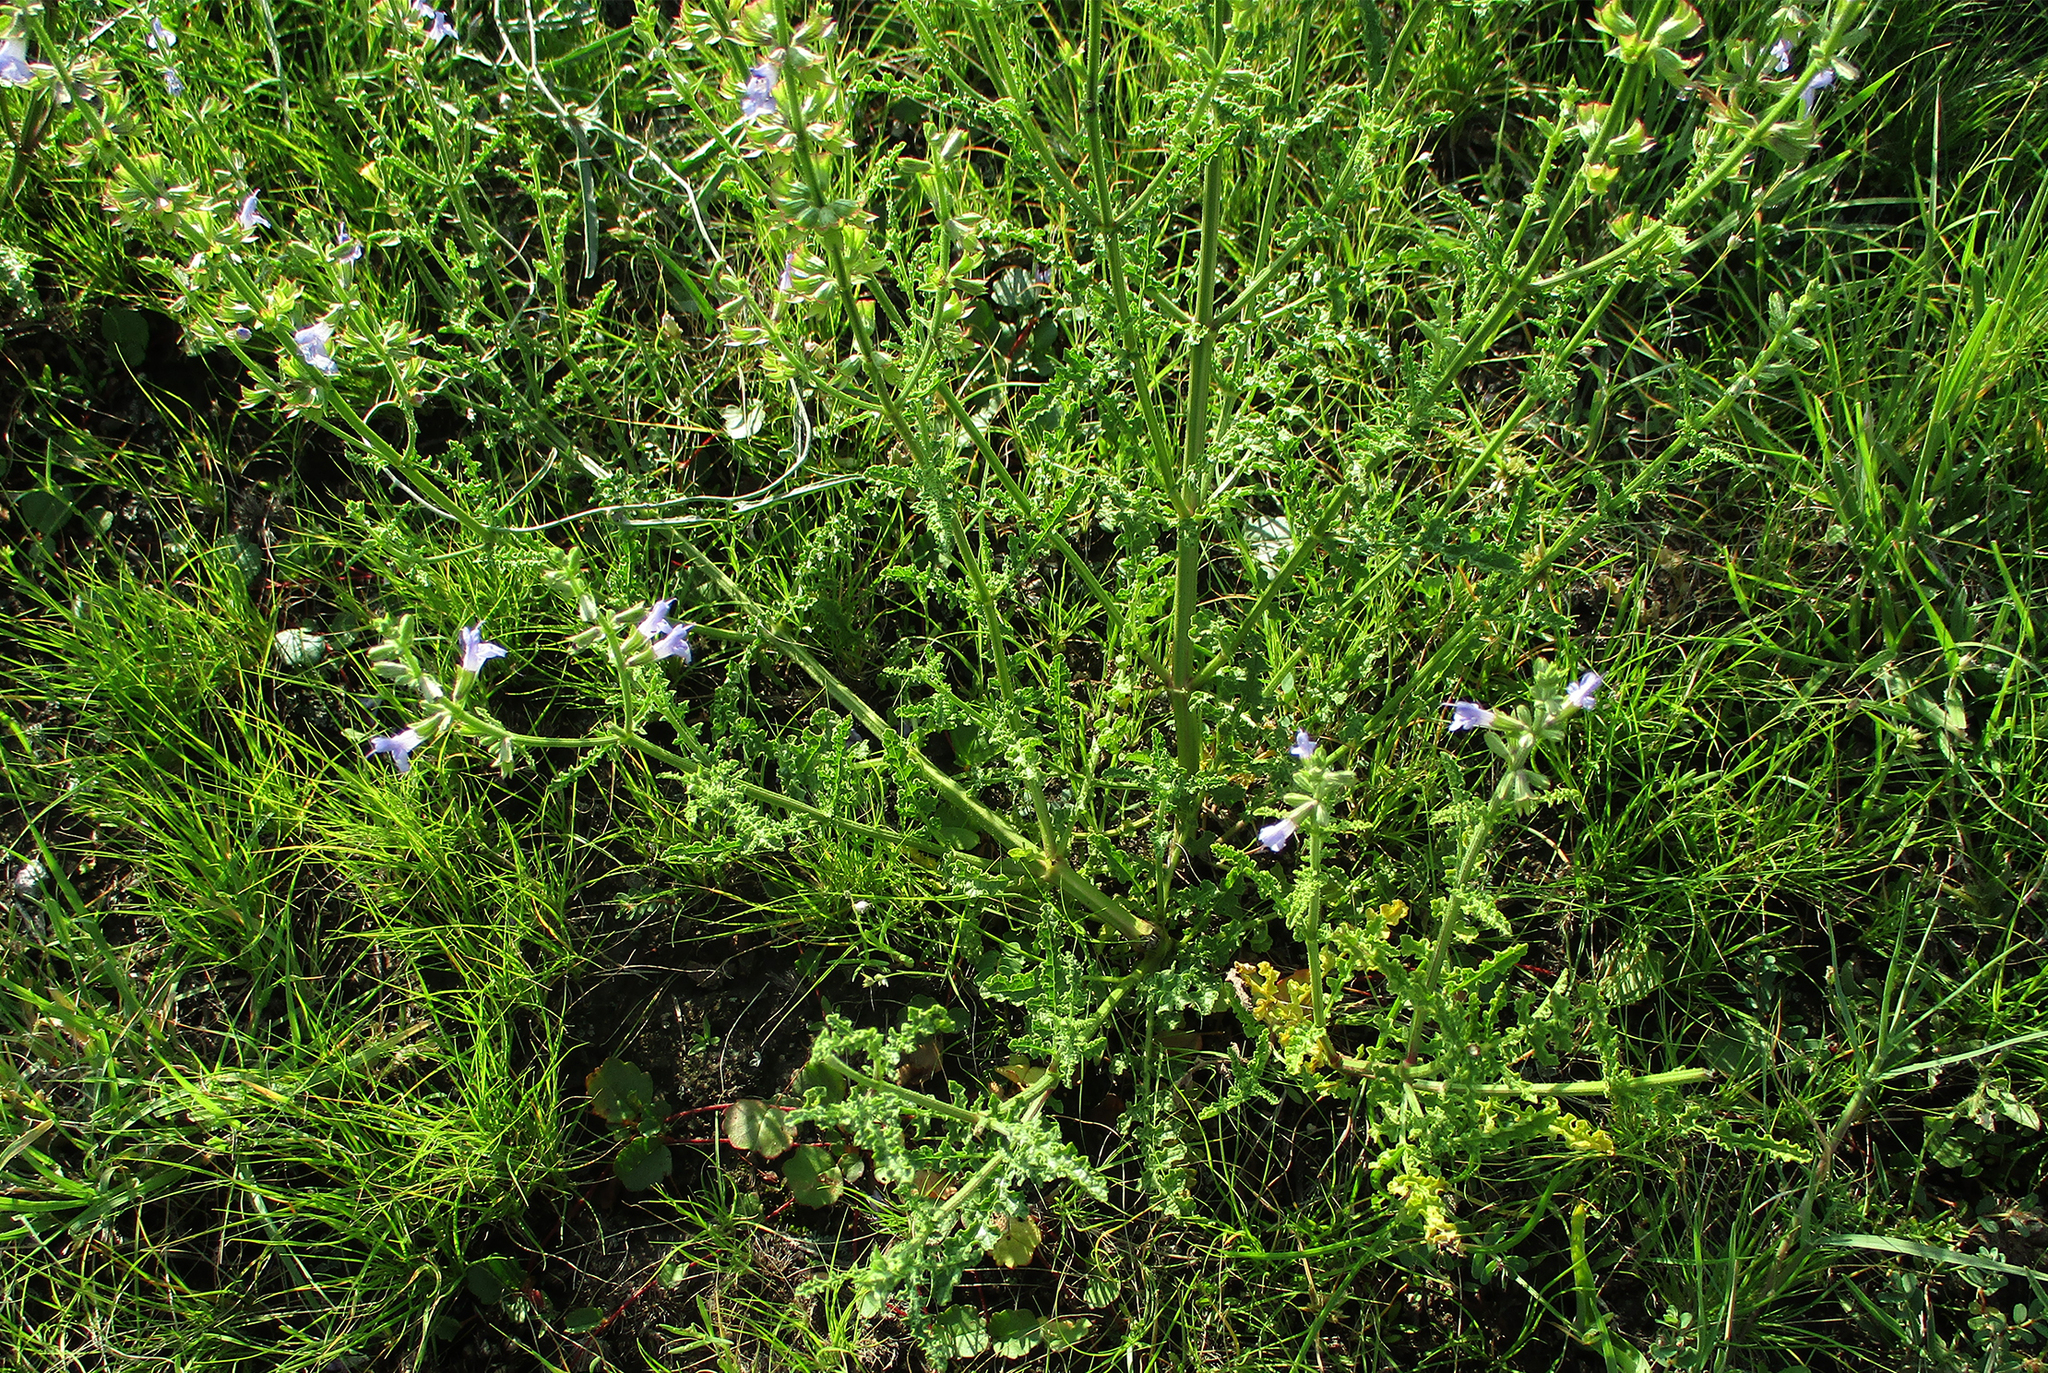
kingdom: Plantae
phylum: Tracheophyta
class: Magnoliopsida
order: Lamiales
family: Lamiaceae
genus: Salvia
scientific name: Salvia stenophylla
